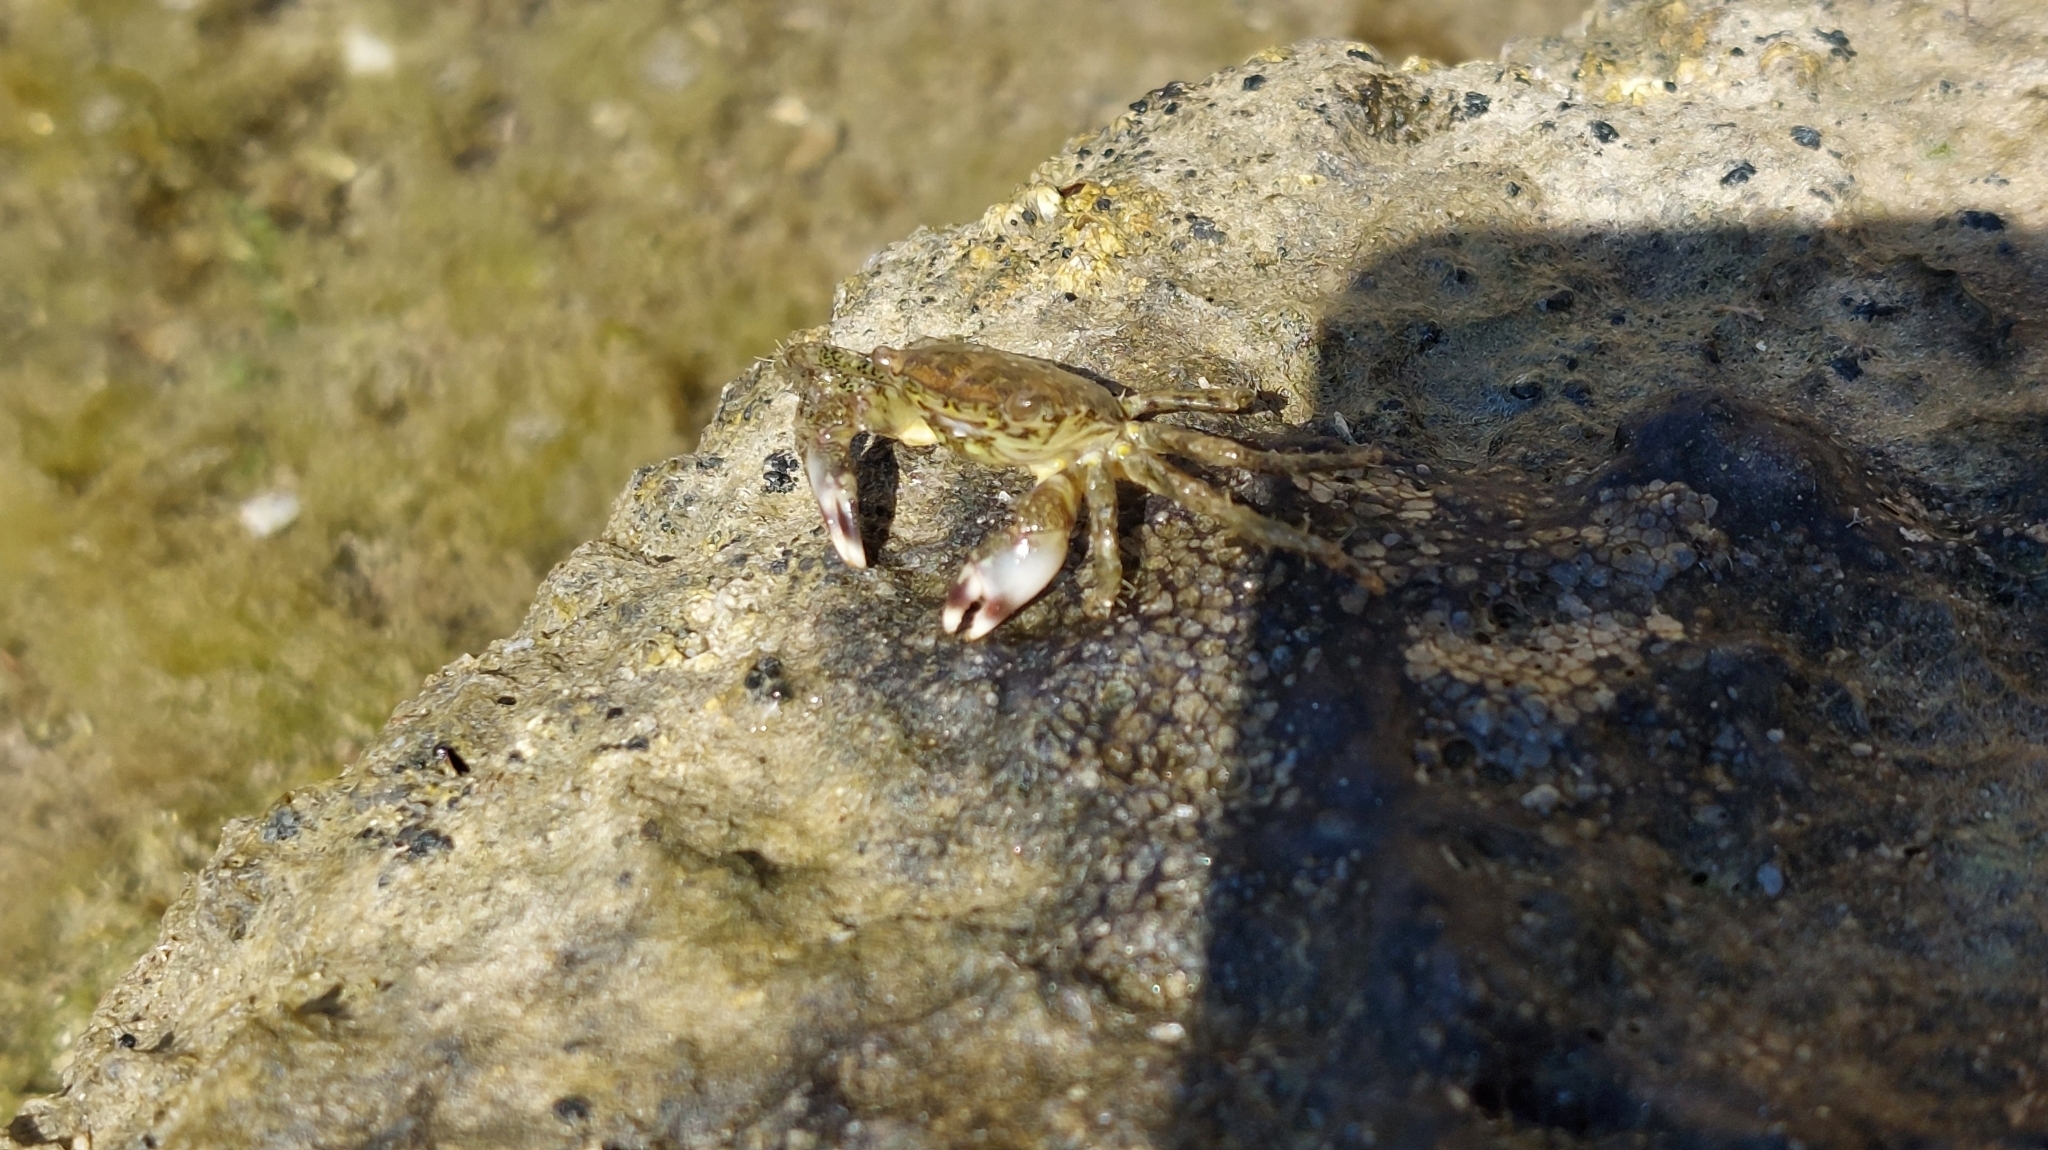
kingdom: Animalia
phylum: Arthropoda
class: Malacostraca
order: Decapoda
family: Grapsidae
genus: Pachygrapsus
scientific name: Pachygrapsus marmoratus
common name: Marbled rock crab
